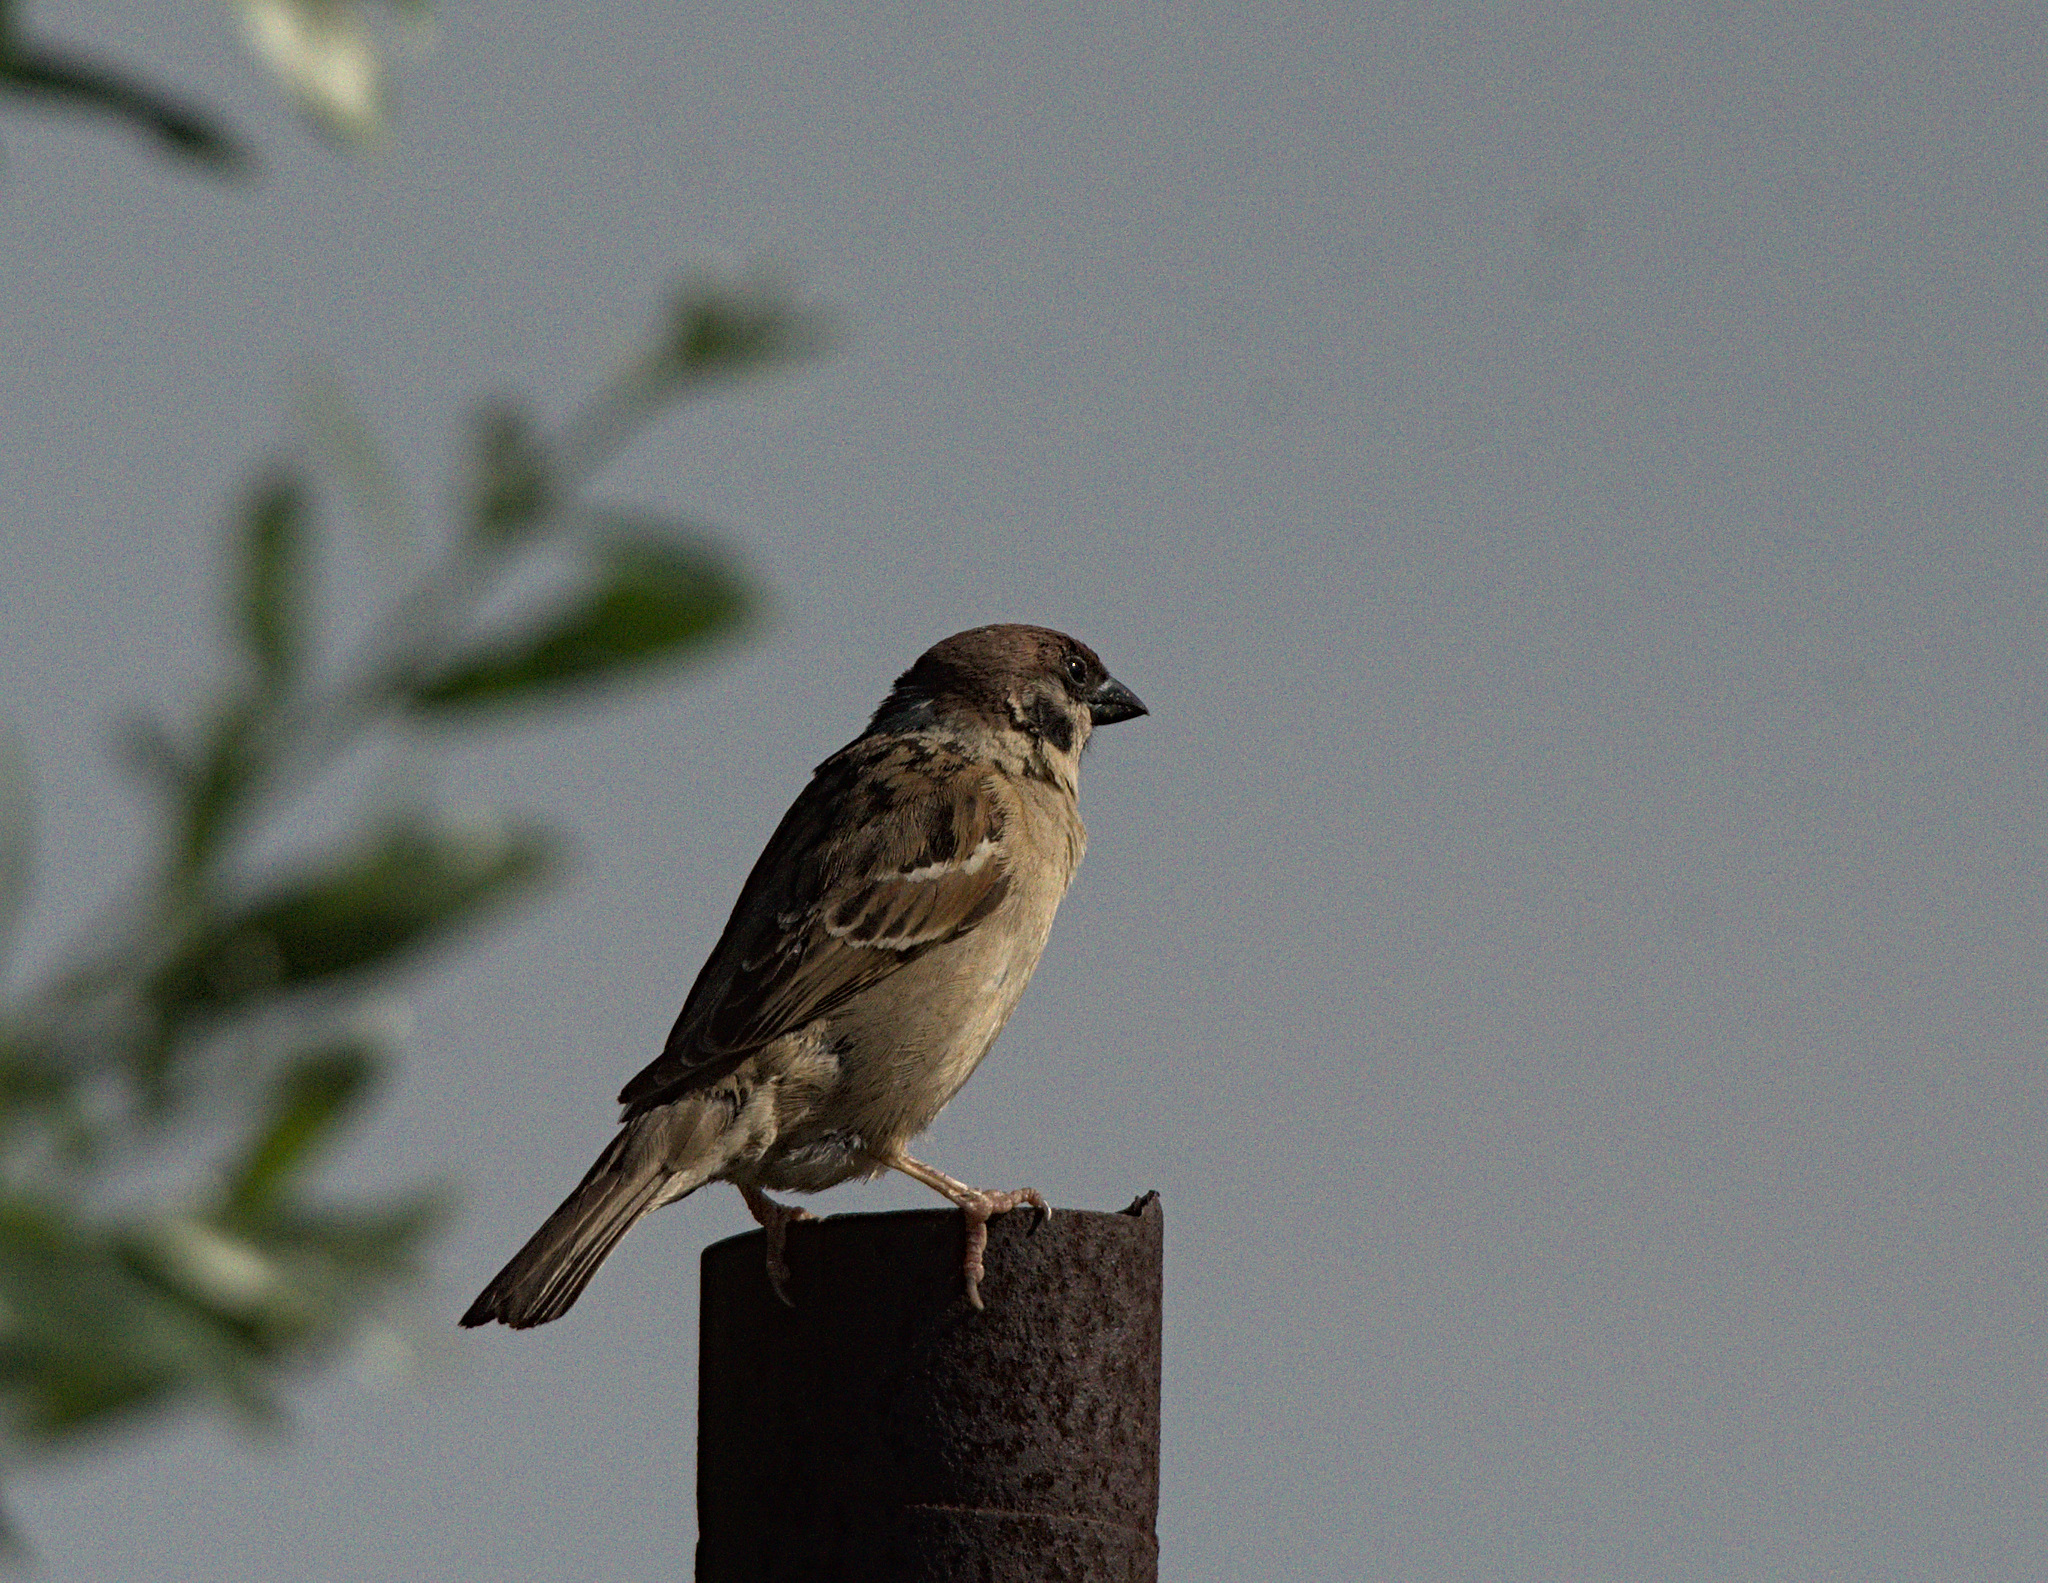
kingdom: Animalia
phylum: Chordata
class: Aves
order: Passeriformes
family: Passeridae
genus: Passer
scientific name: Passer montanus
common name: Eurasian tree sparrow
